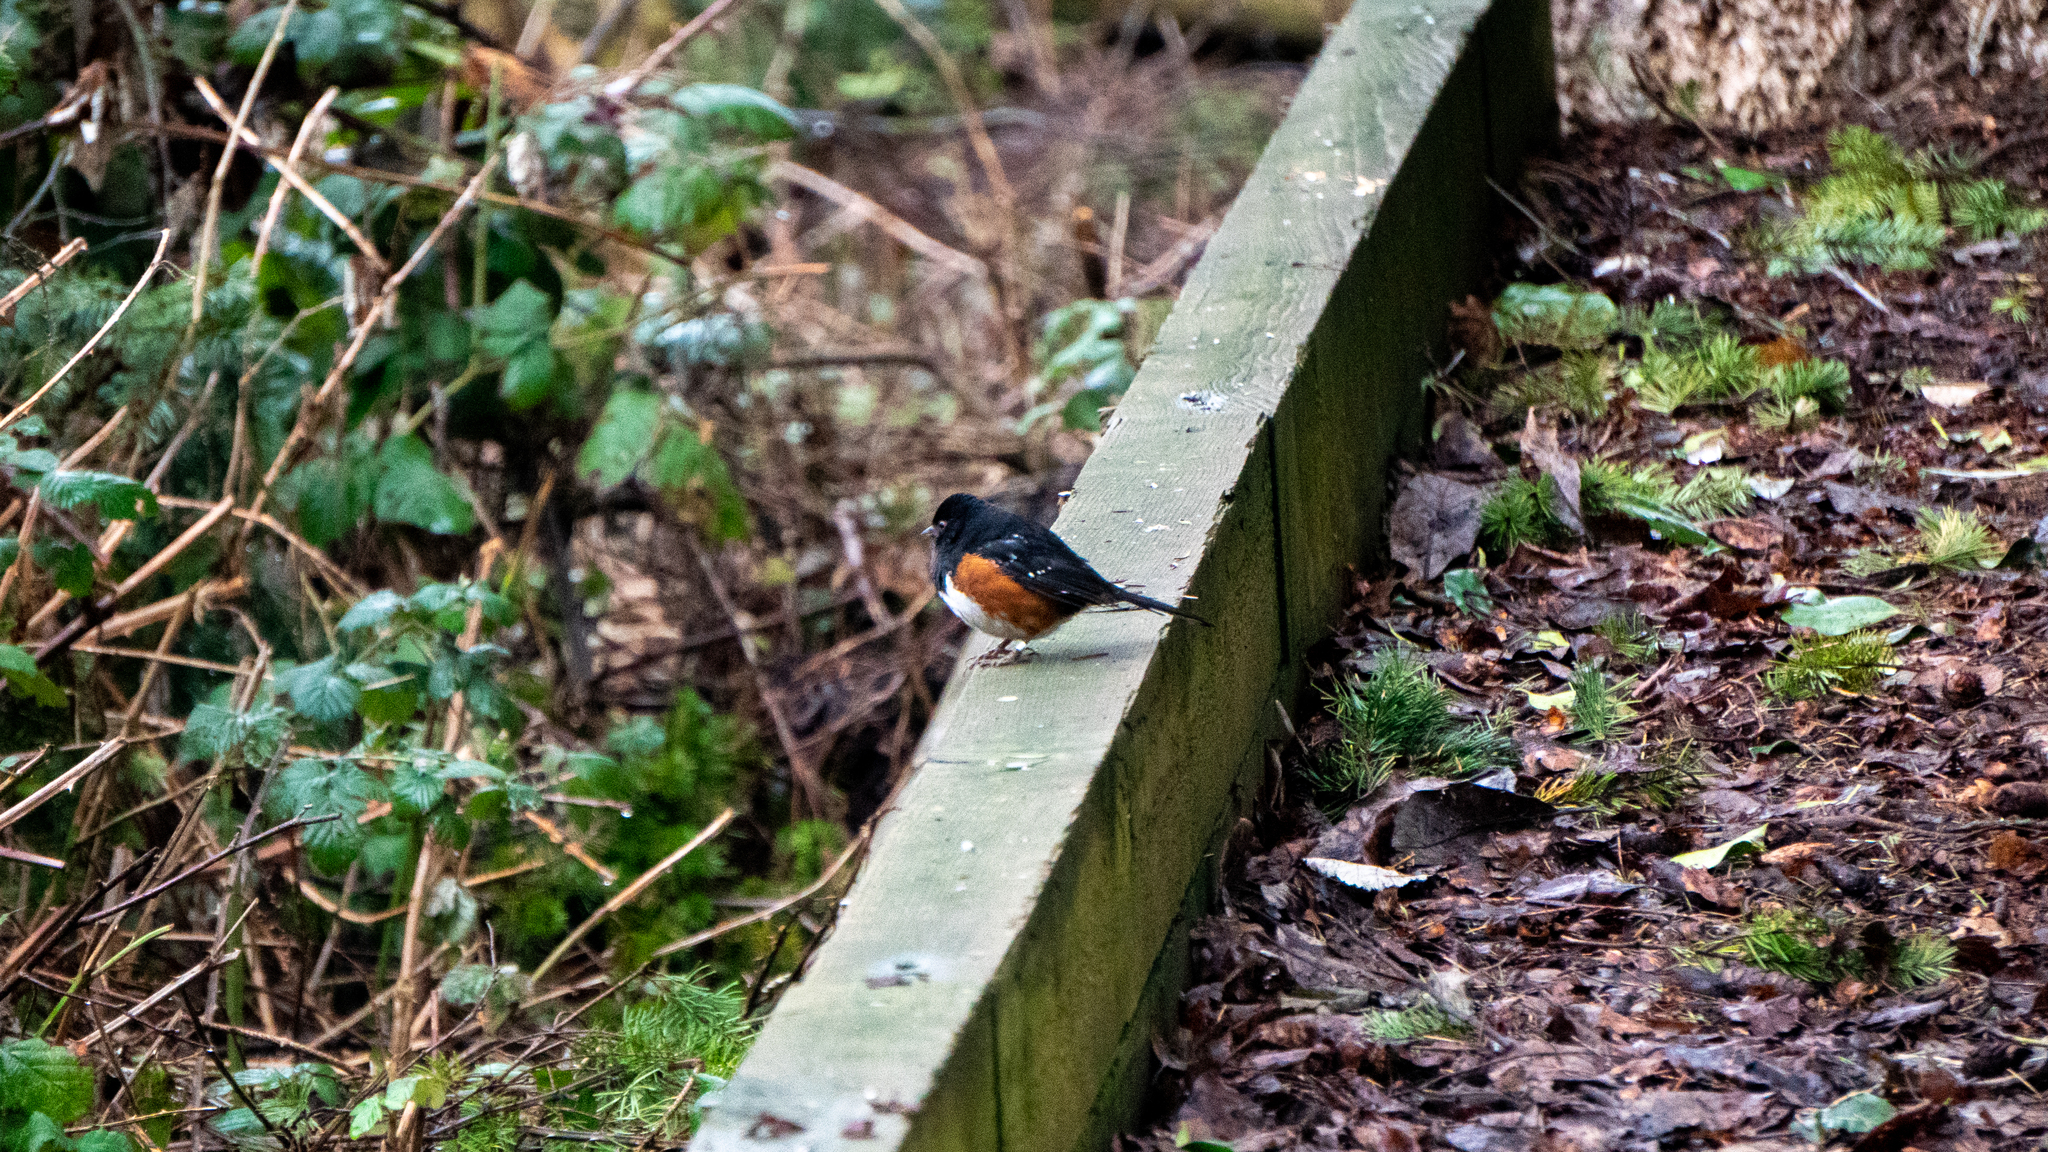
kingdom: Animalia
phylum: Chordata
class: Aves
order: Passeriformes
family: Passerellidae
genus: Pipilo
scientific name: Pipilo maculatus
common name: Spotted towhee
